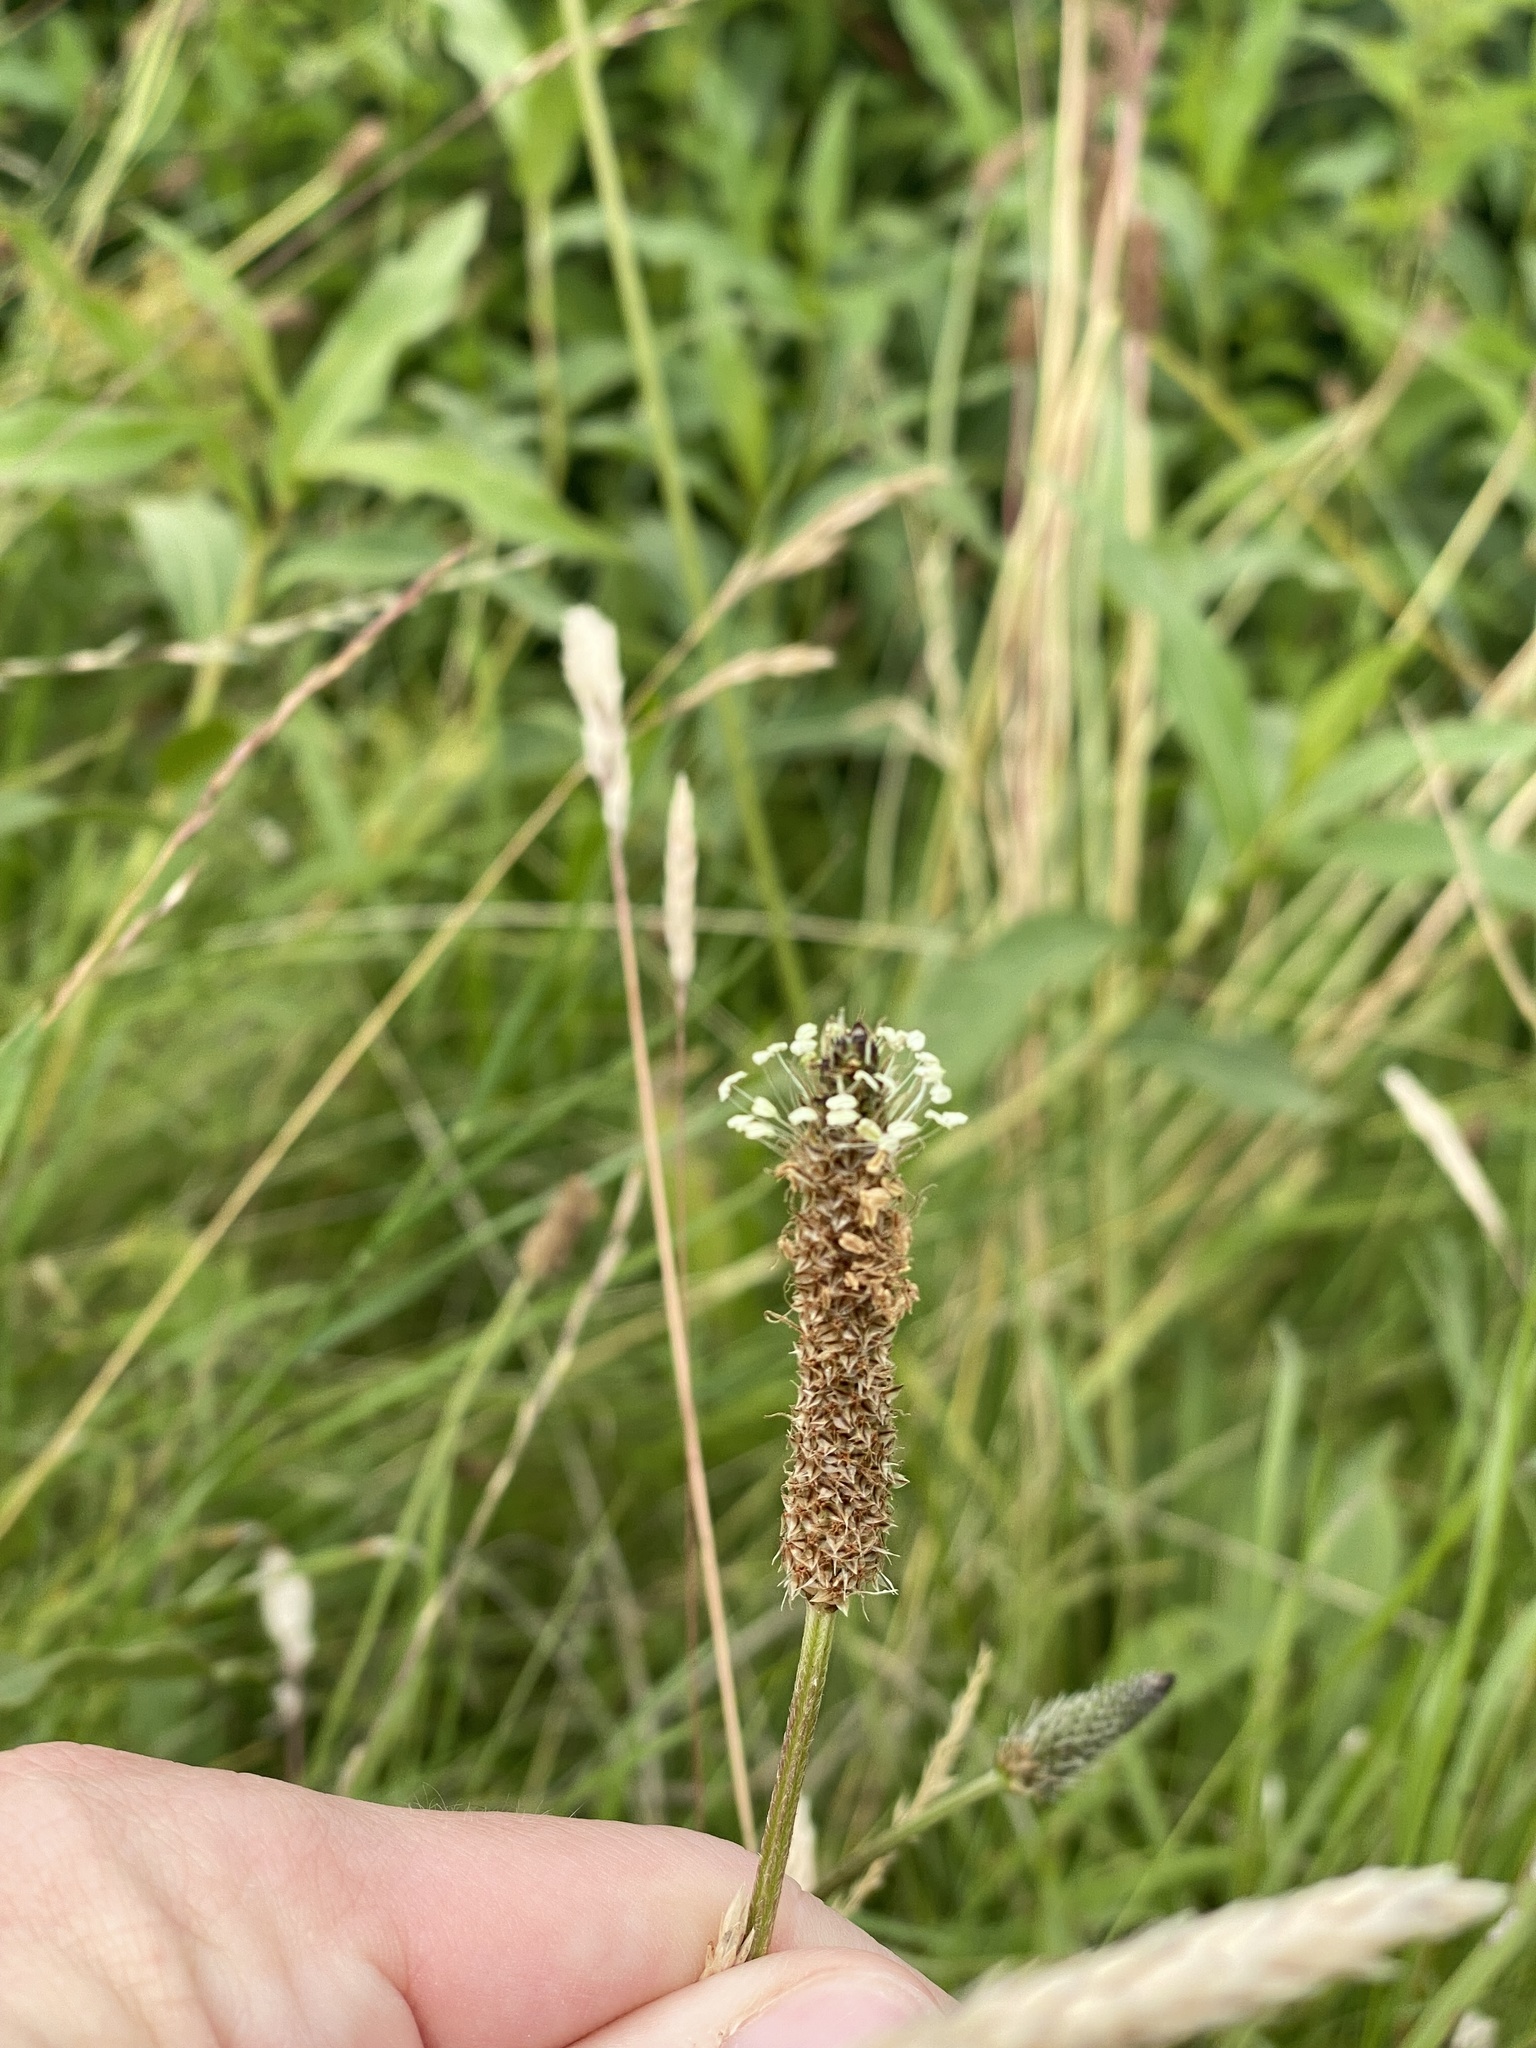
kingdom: Plantae
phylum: Tracheophyta
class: Magnoliopsida
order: Lamiales
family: Plantaginaceae
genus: Plantago
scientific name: Plantago lanceolata
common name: Ribwort plantain
